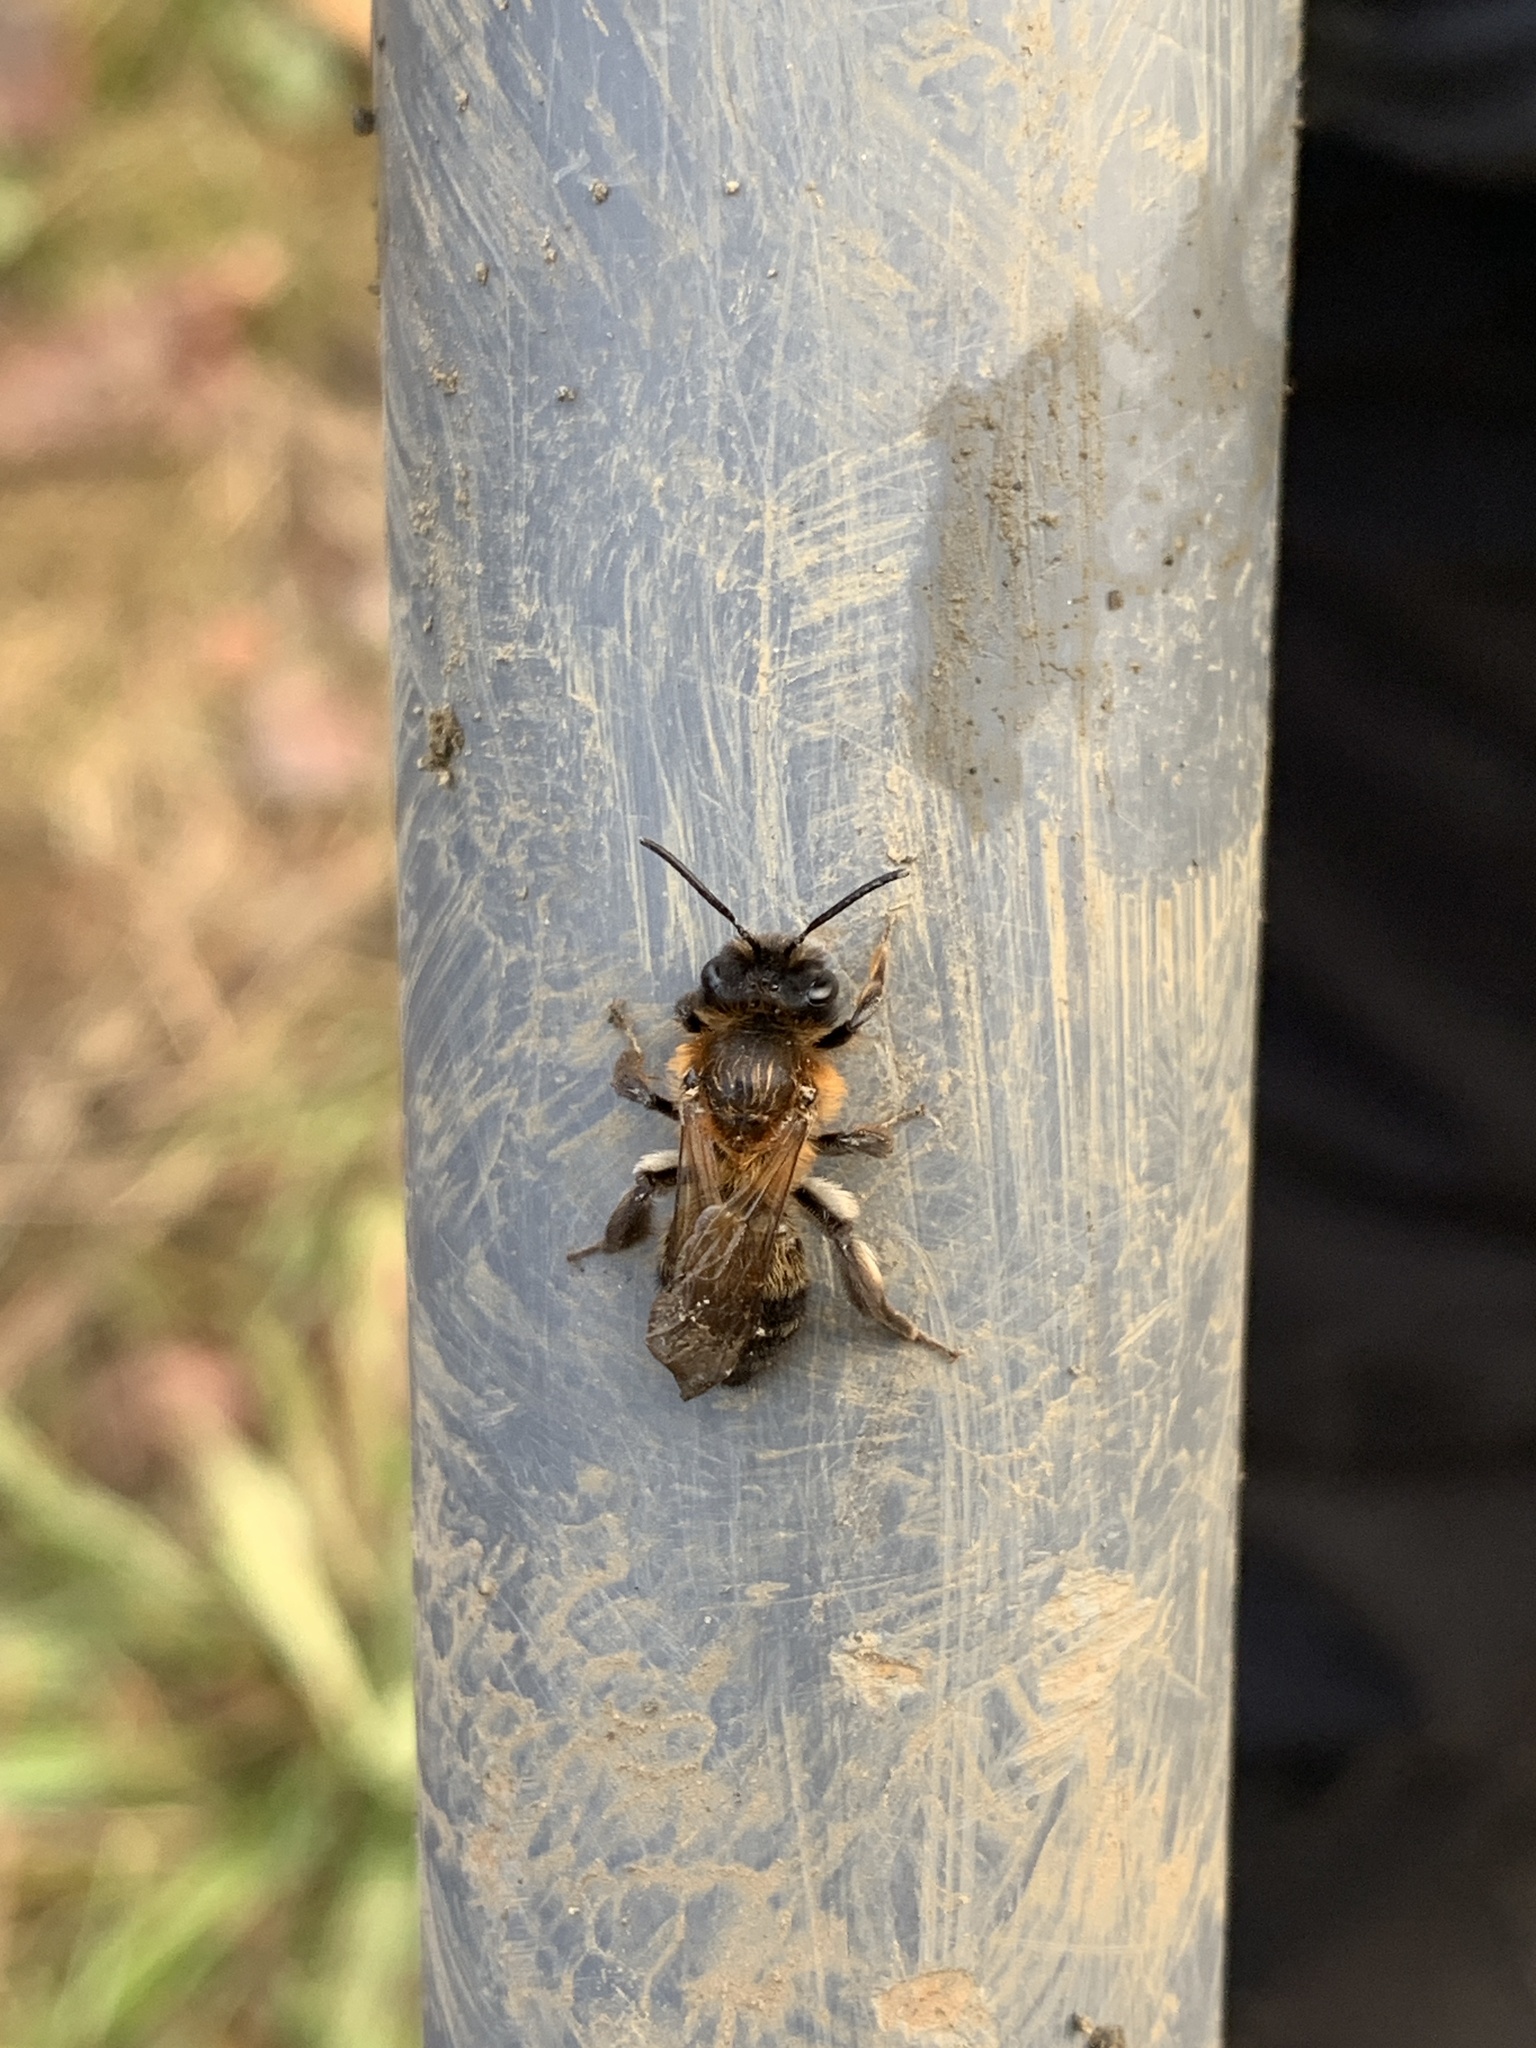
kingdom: Animalia
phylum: Arthropoda
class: Insecta
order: Hymenoptera
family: Andrenidae
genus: Andrena
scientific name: Andrena
